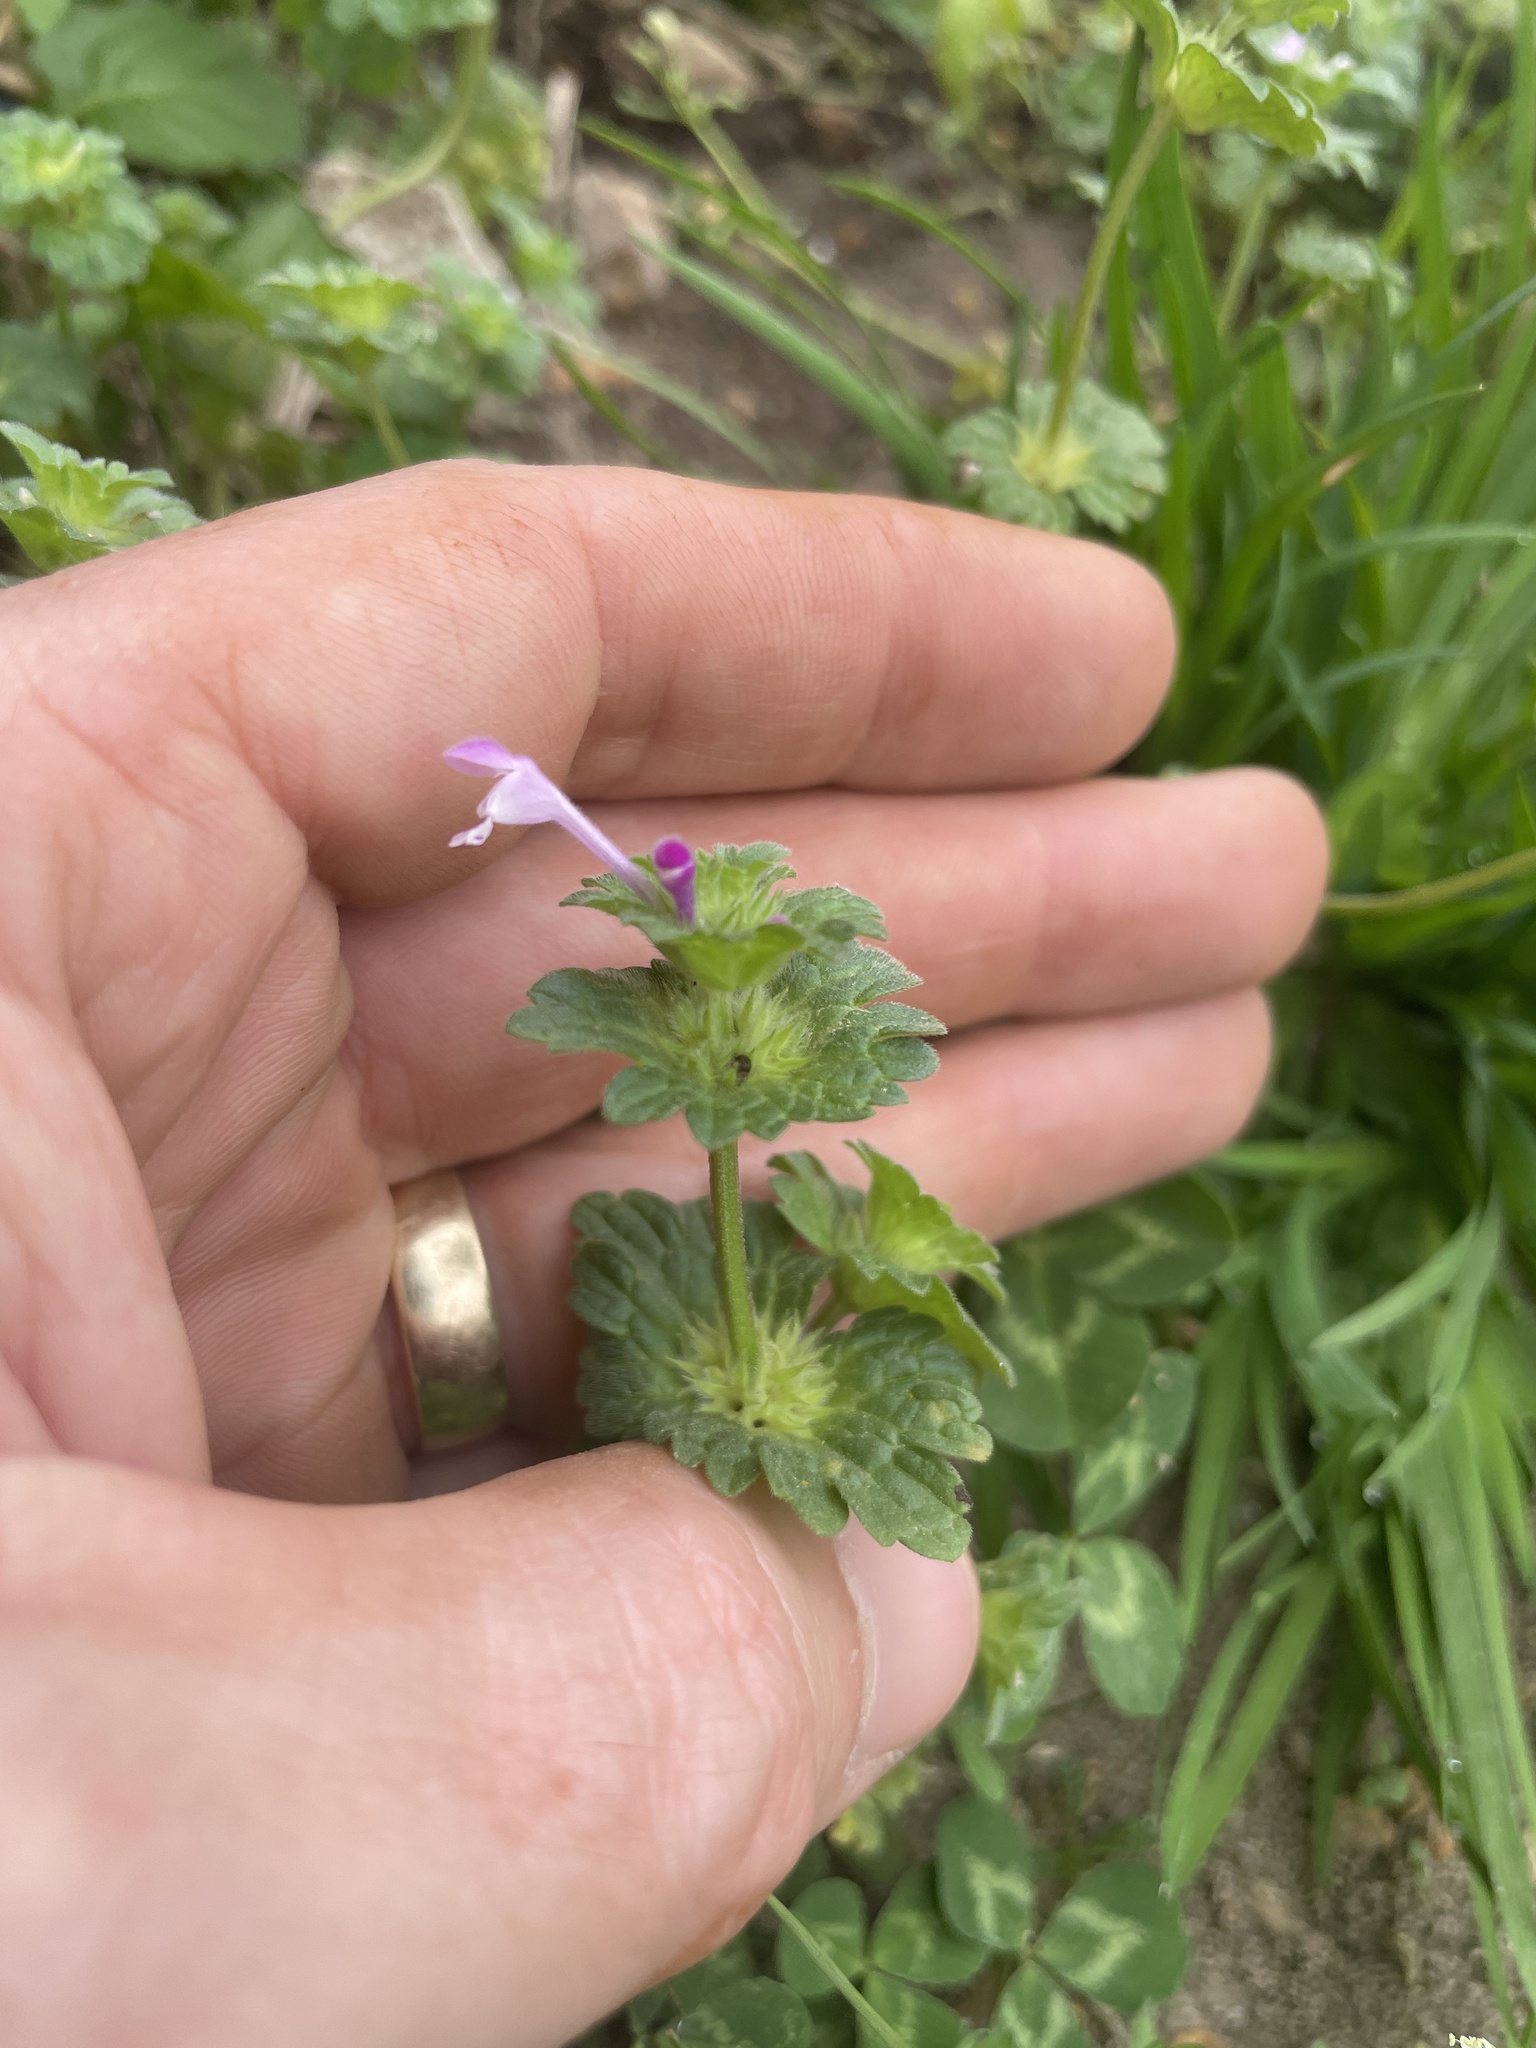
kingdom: Plantae
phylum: Tracheophyta
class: Magnoliopsida
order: Lamiales
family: Lamiaceae
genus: Lamium
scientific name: Lamium amplexicaule
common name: Henbit dead-nettle
